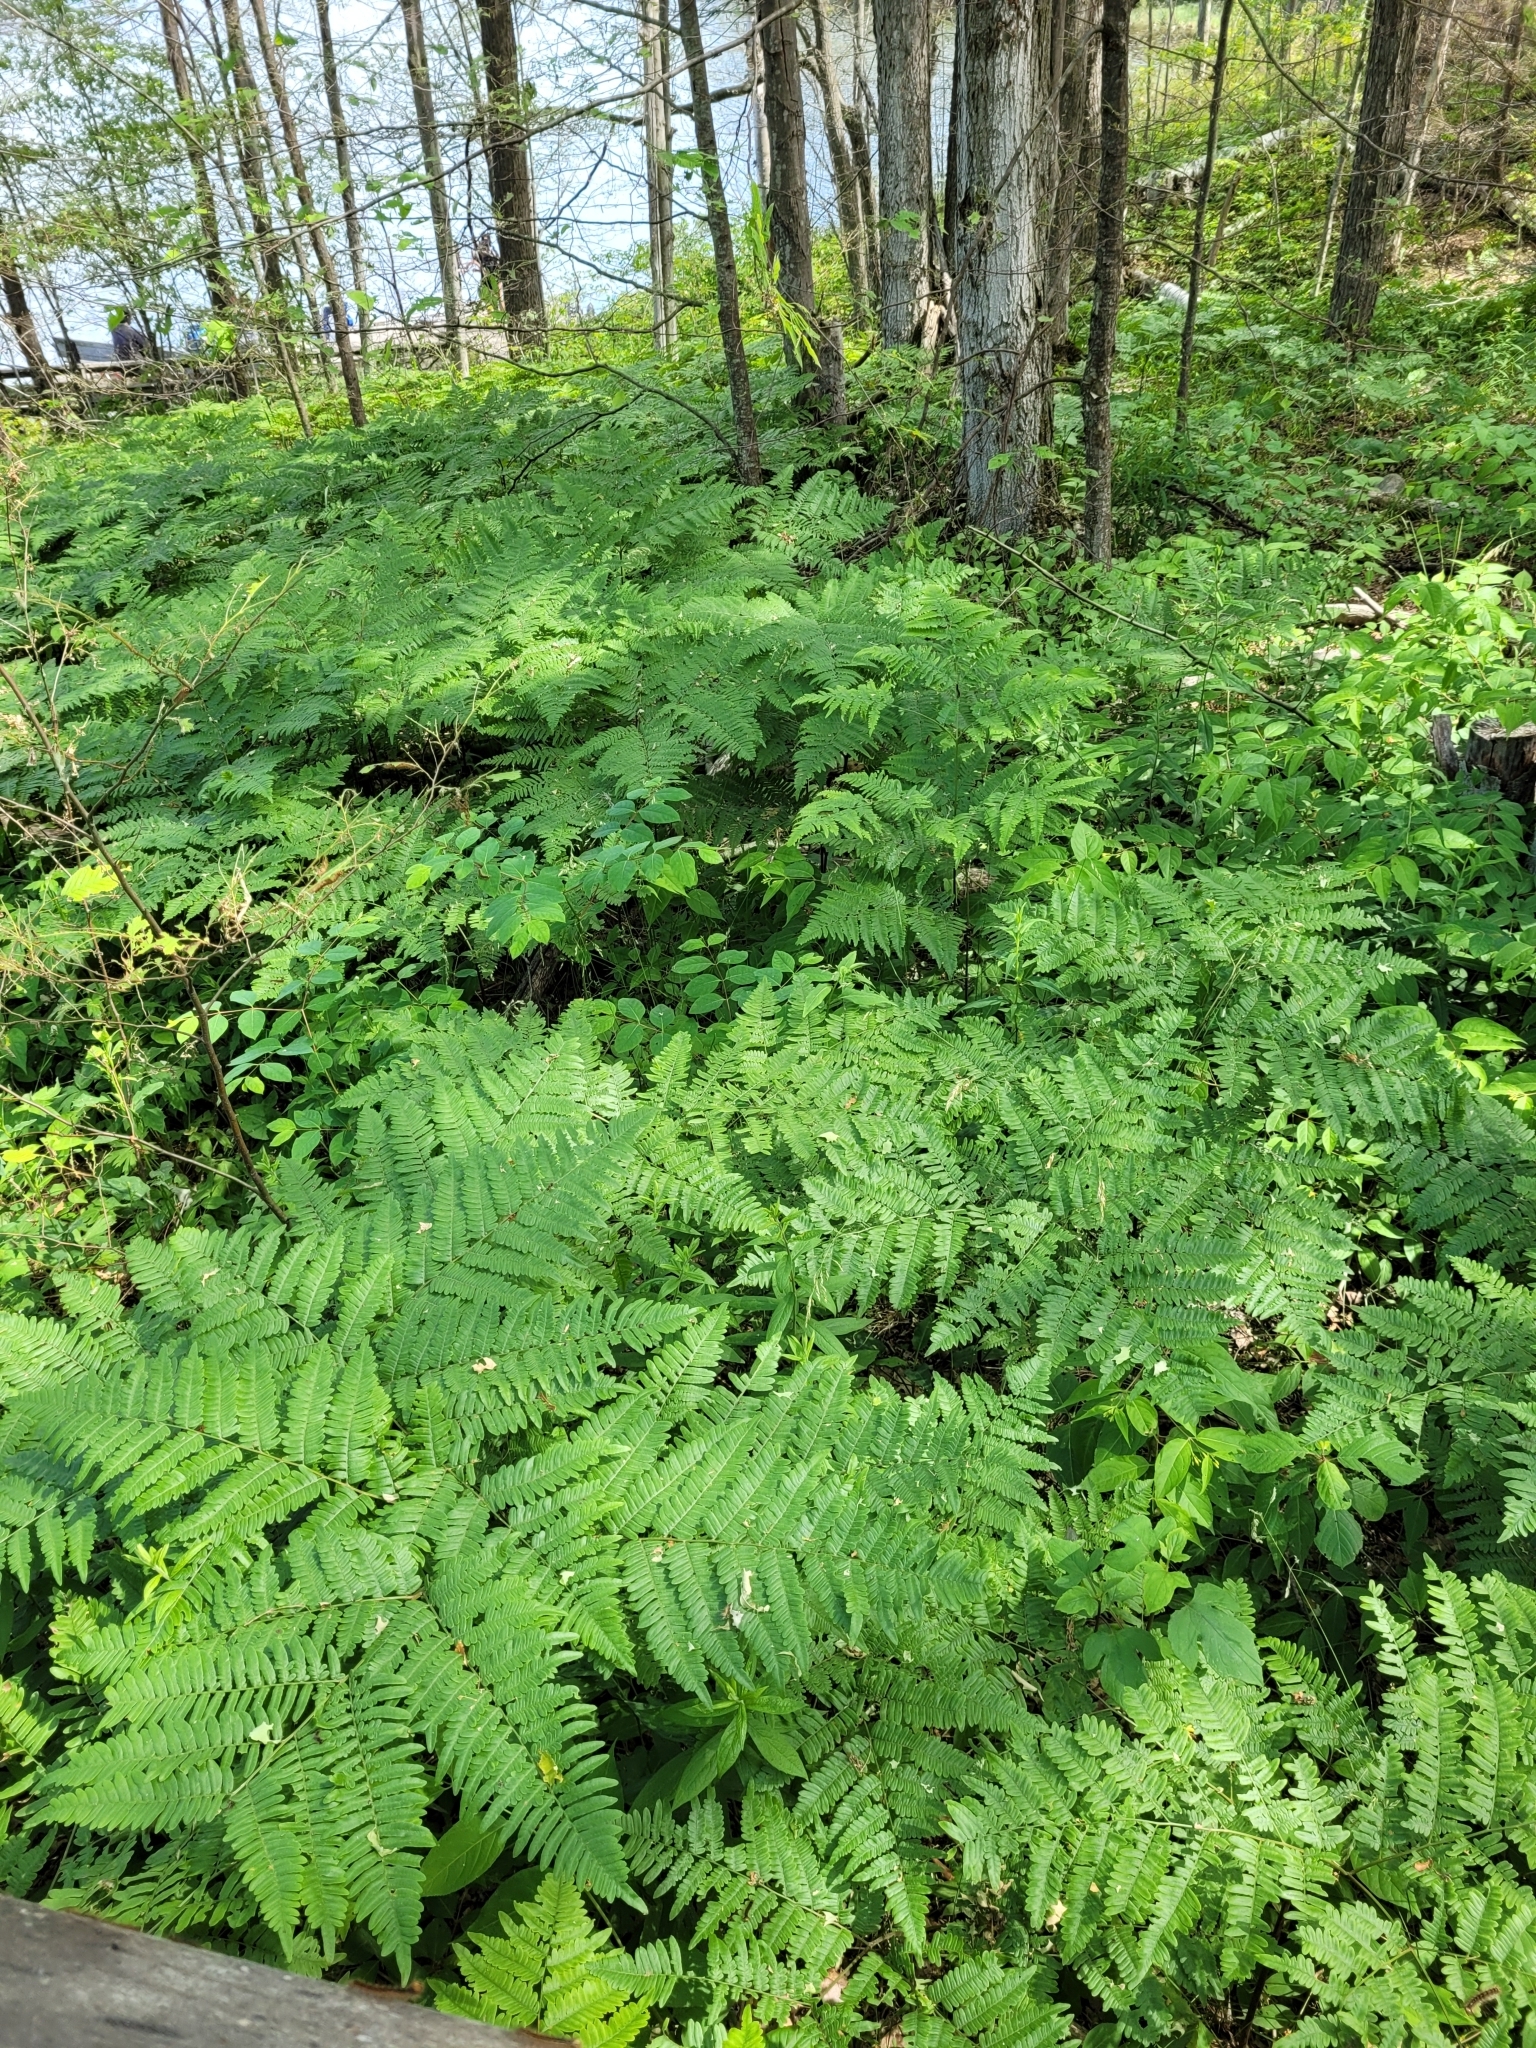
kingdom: Plantae
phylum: Tracheophyta
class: Polypodiopsida
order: Polypodiales
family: Dennstaedtiaceae
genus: Pteridium
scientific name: Pteridium aquilinum
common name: Bracken
